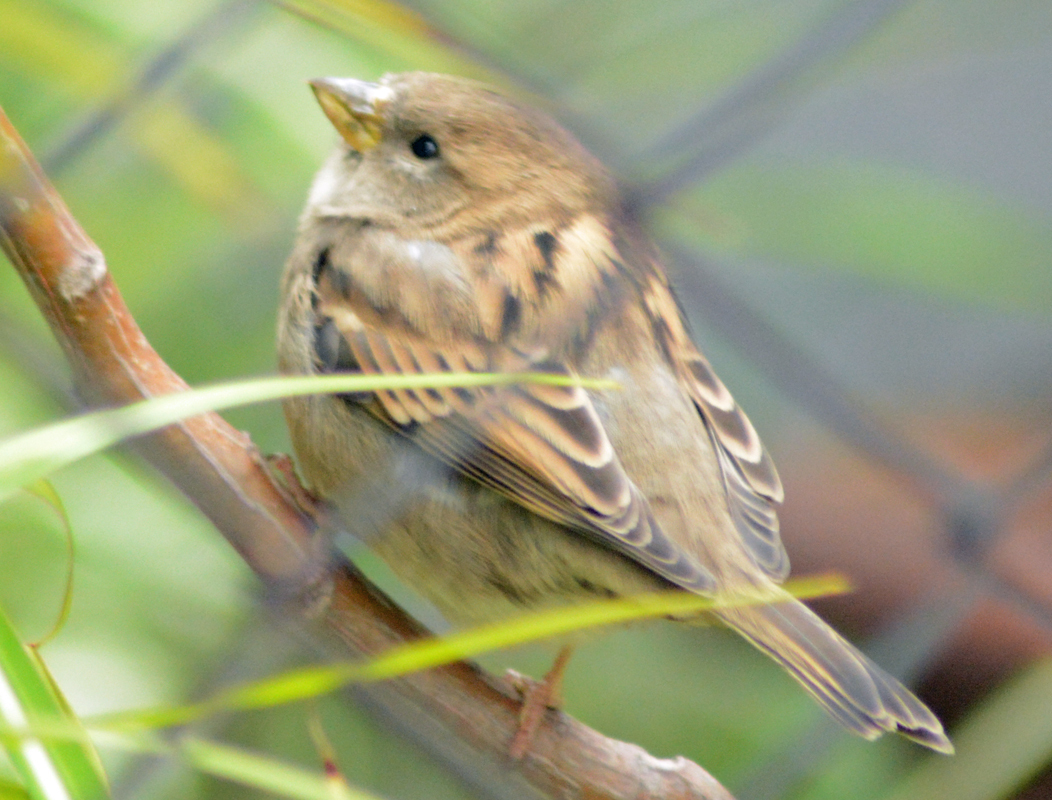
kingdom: Animalia
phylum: Chordata
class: Aves
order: Passeriformes
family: Passeridae
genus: Passer
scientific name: Passer domesticus
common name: House sparrow
